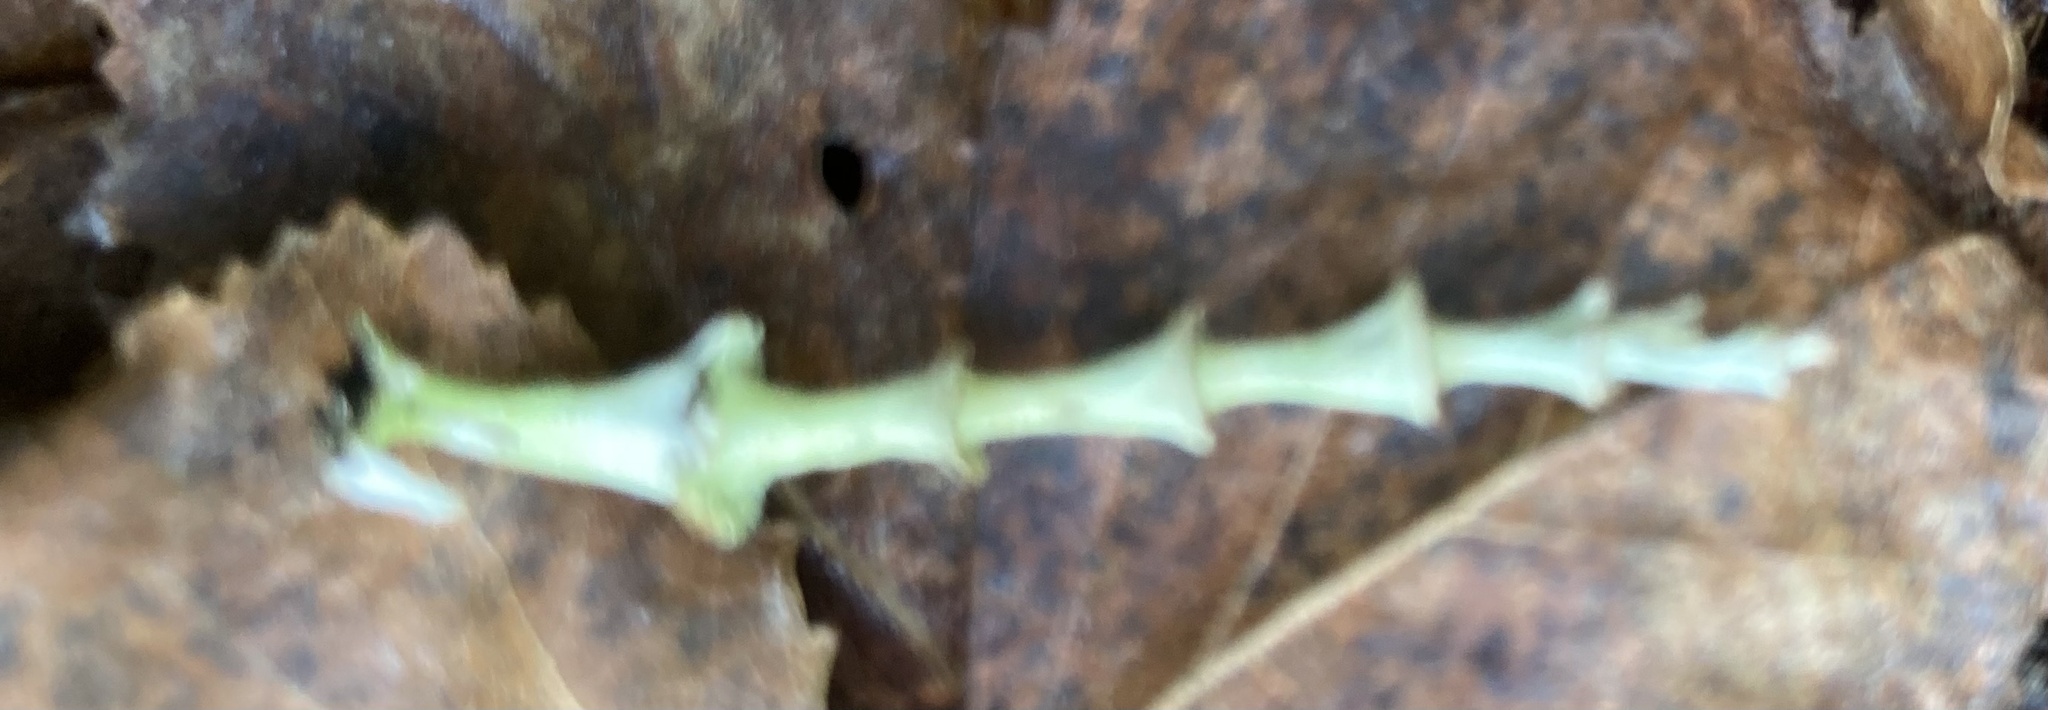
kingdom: Fungi
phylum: Ascomycota
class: Lecanoromycetes
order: Lecanorales
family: Cladoniaceae
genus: Cladonia
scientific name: Cladonia cervicornis
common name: Browned pixie-cup lichen
